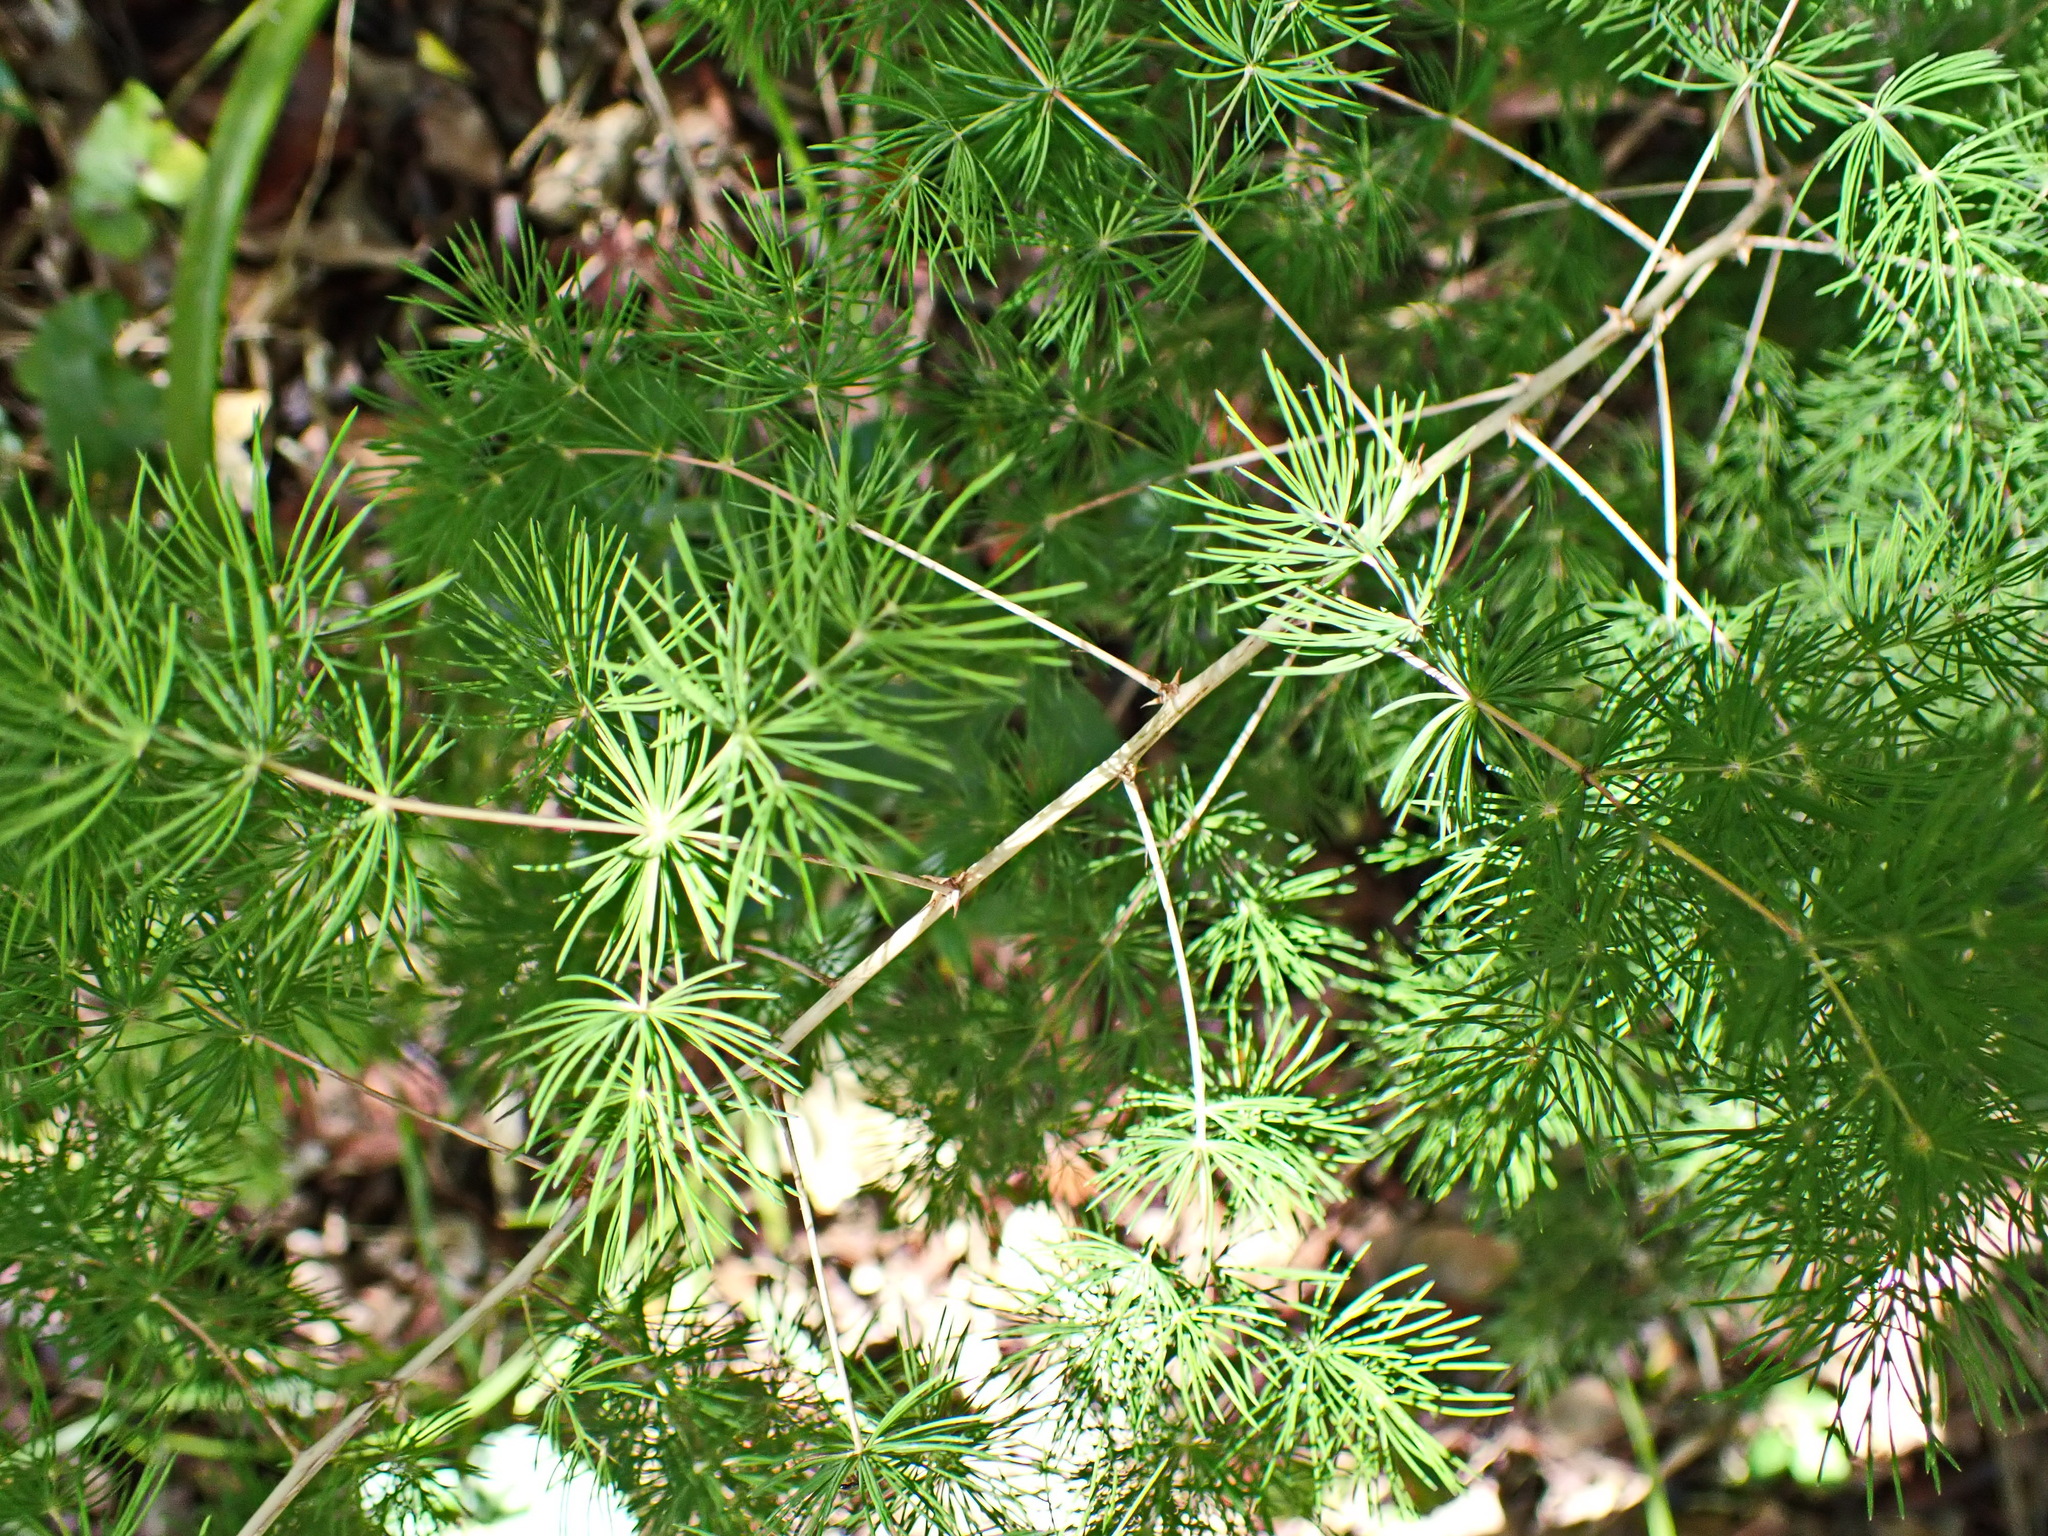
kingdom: Plantae
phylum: Tracheophyta
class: Liliopsida
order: Asparagales
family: Asparagaceae
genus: Asparagus
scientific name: Asparagus macowanii
